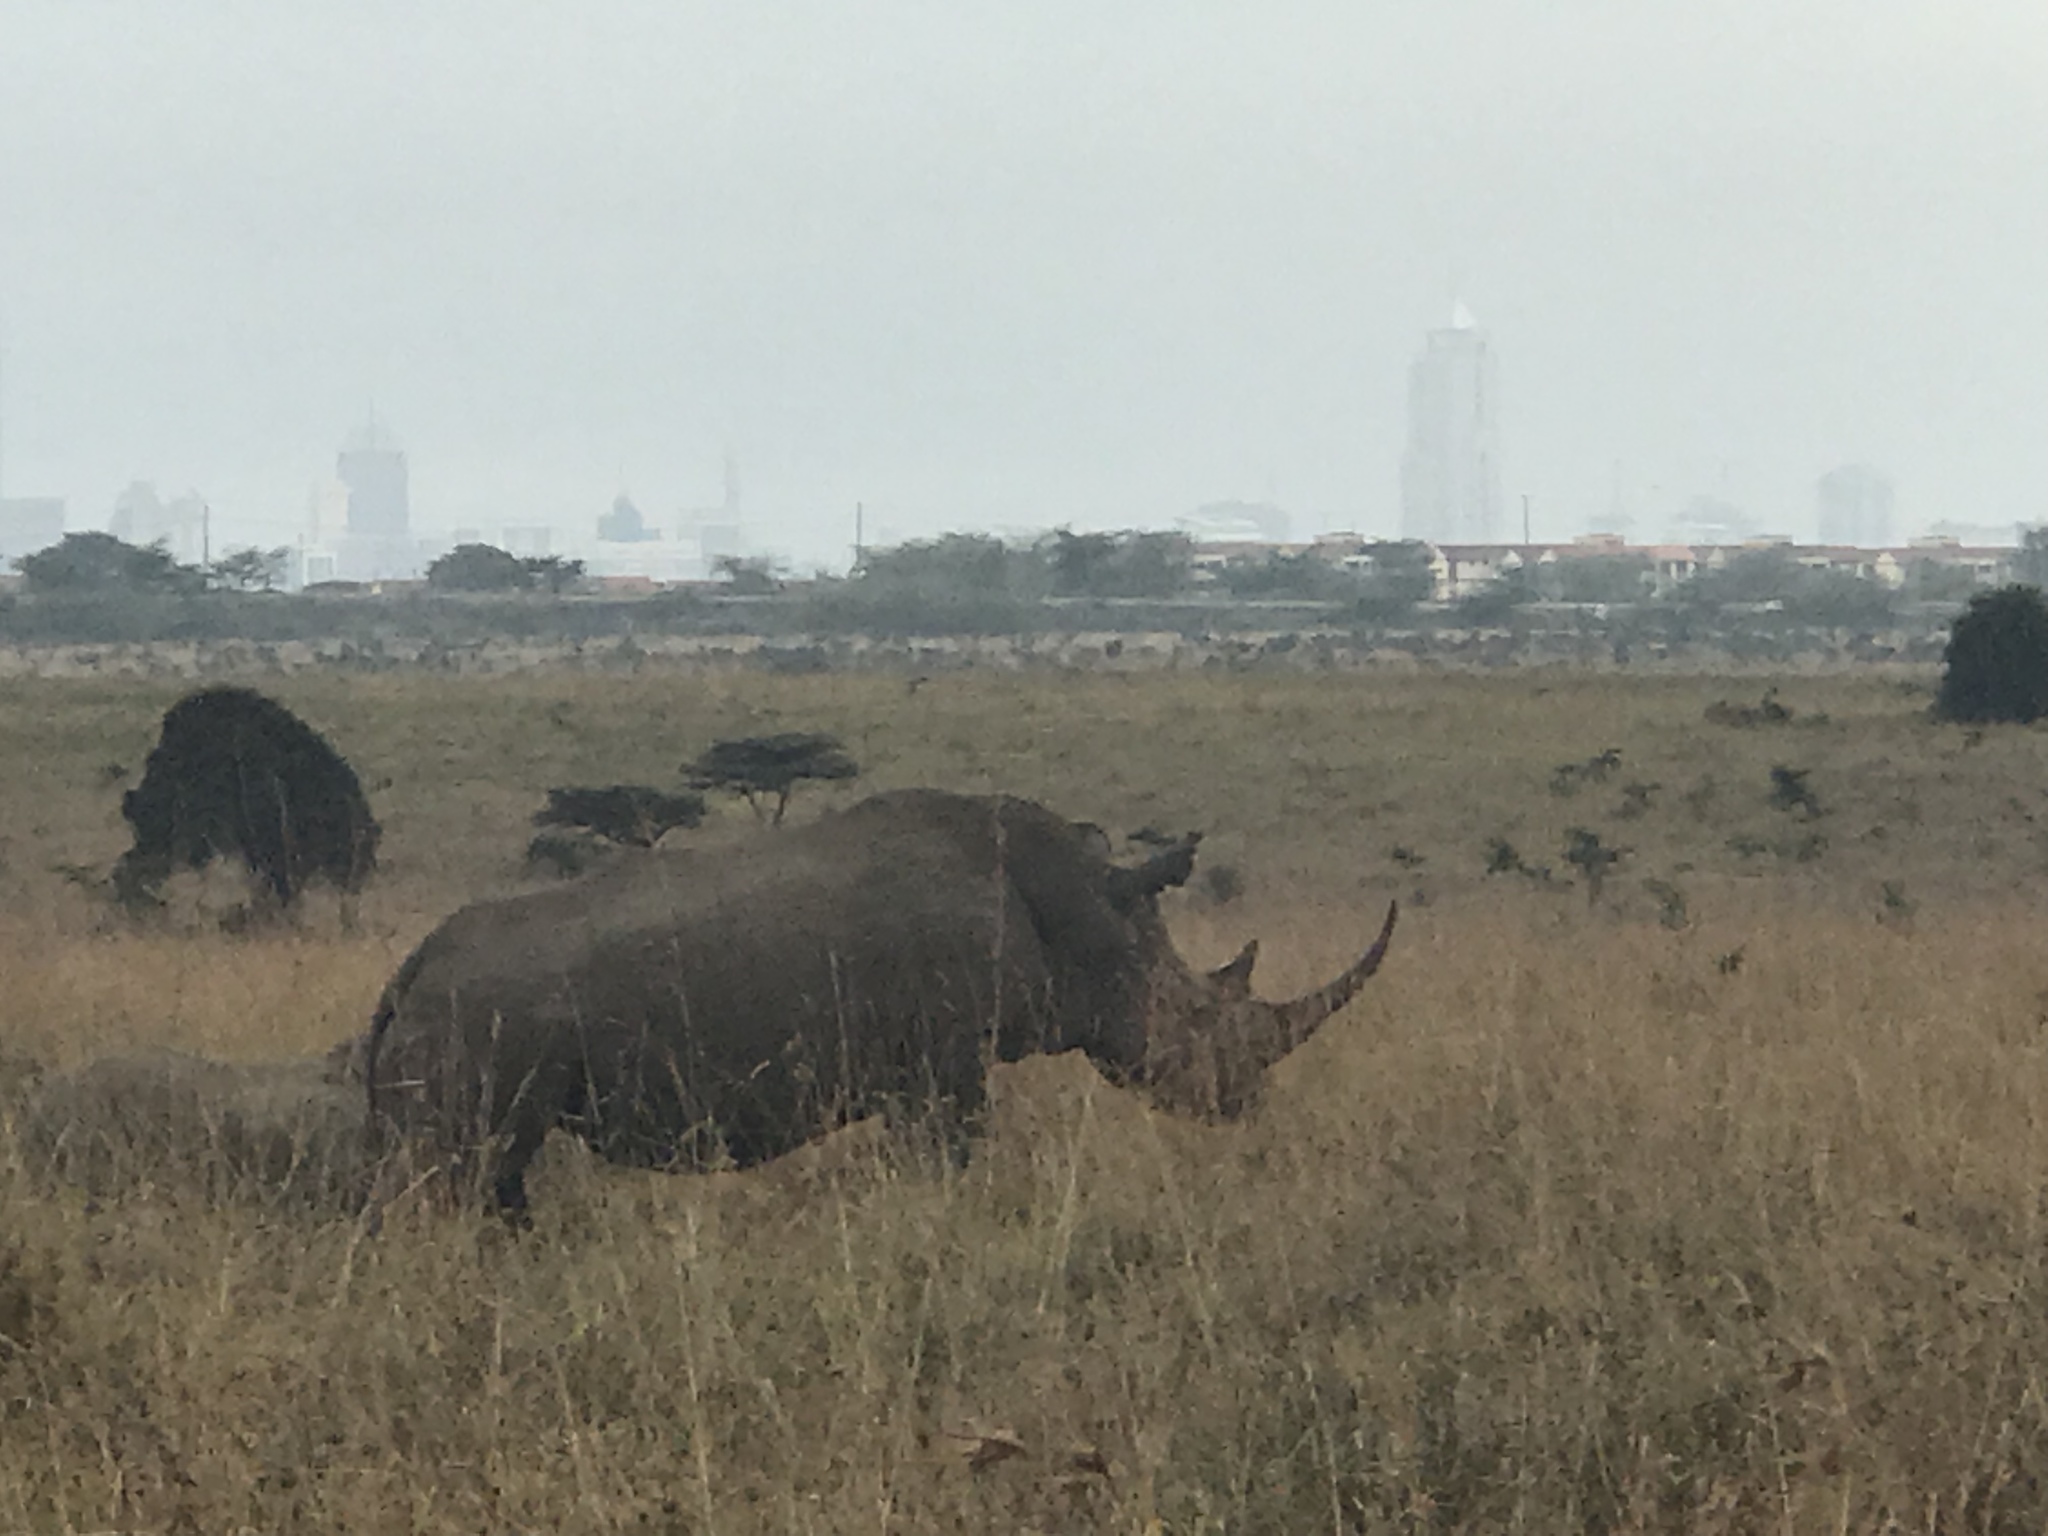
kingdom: Animalia
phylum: Chordata
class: Mammalia
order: Perissodactyla
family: Rhinocerotidae
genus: Ceratotherium
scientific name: Ceratotherium simum
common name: White rhinoceros
